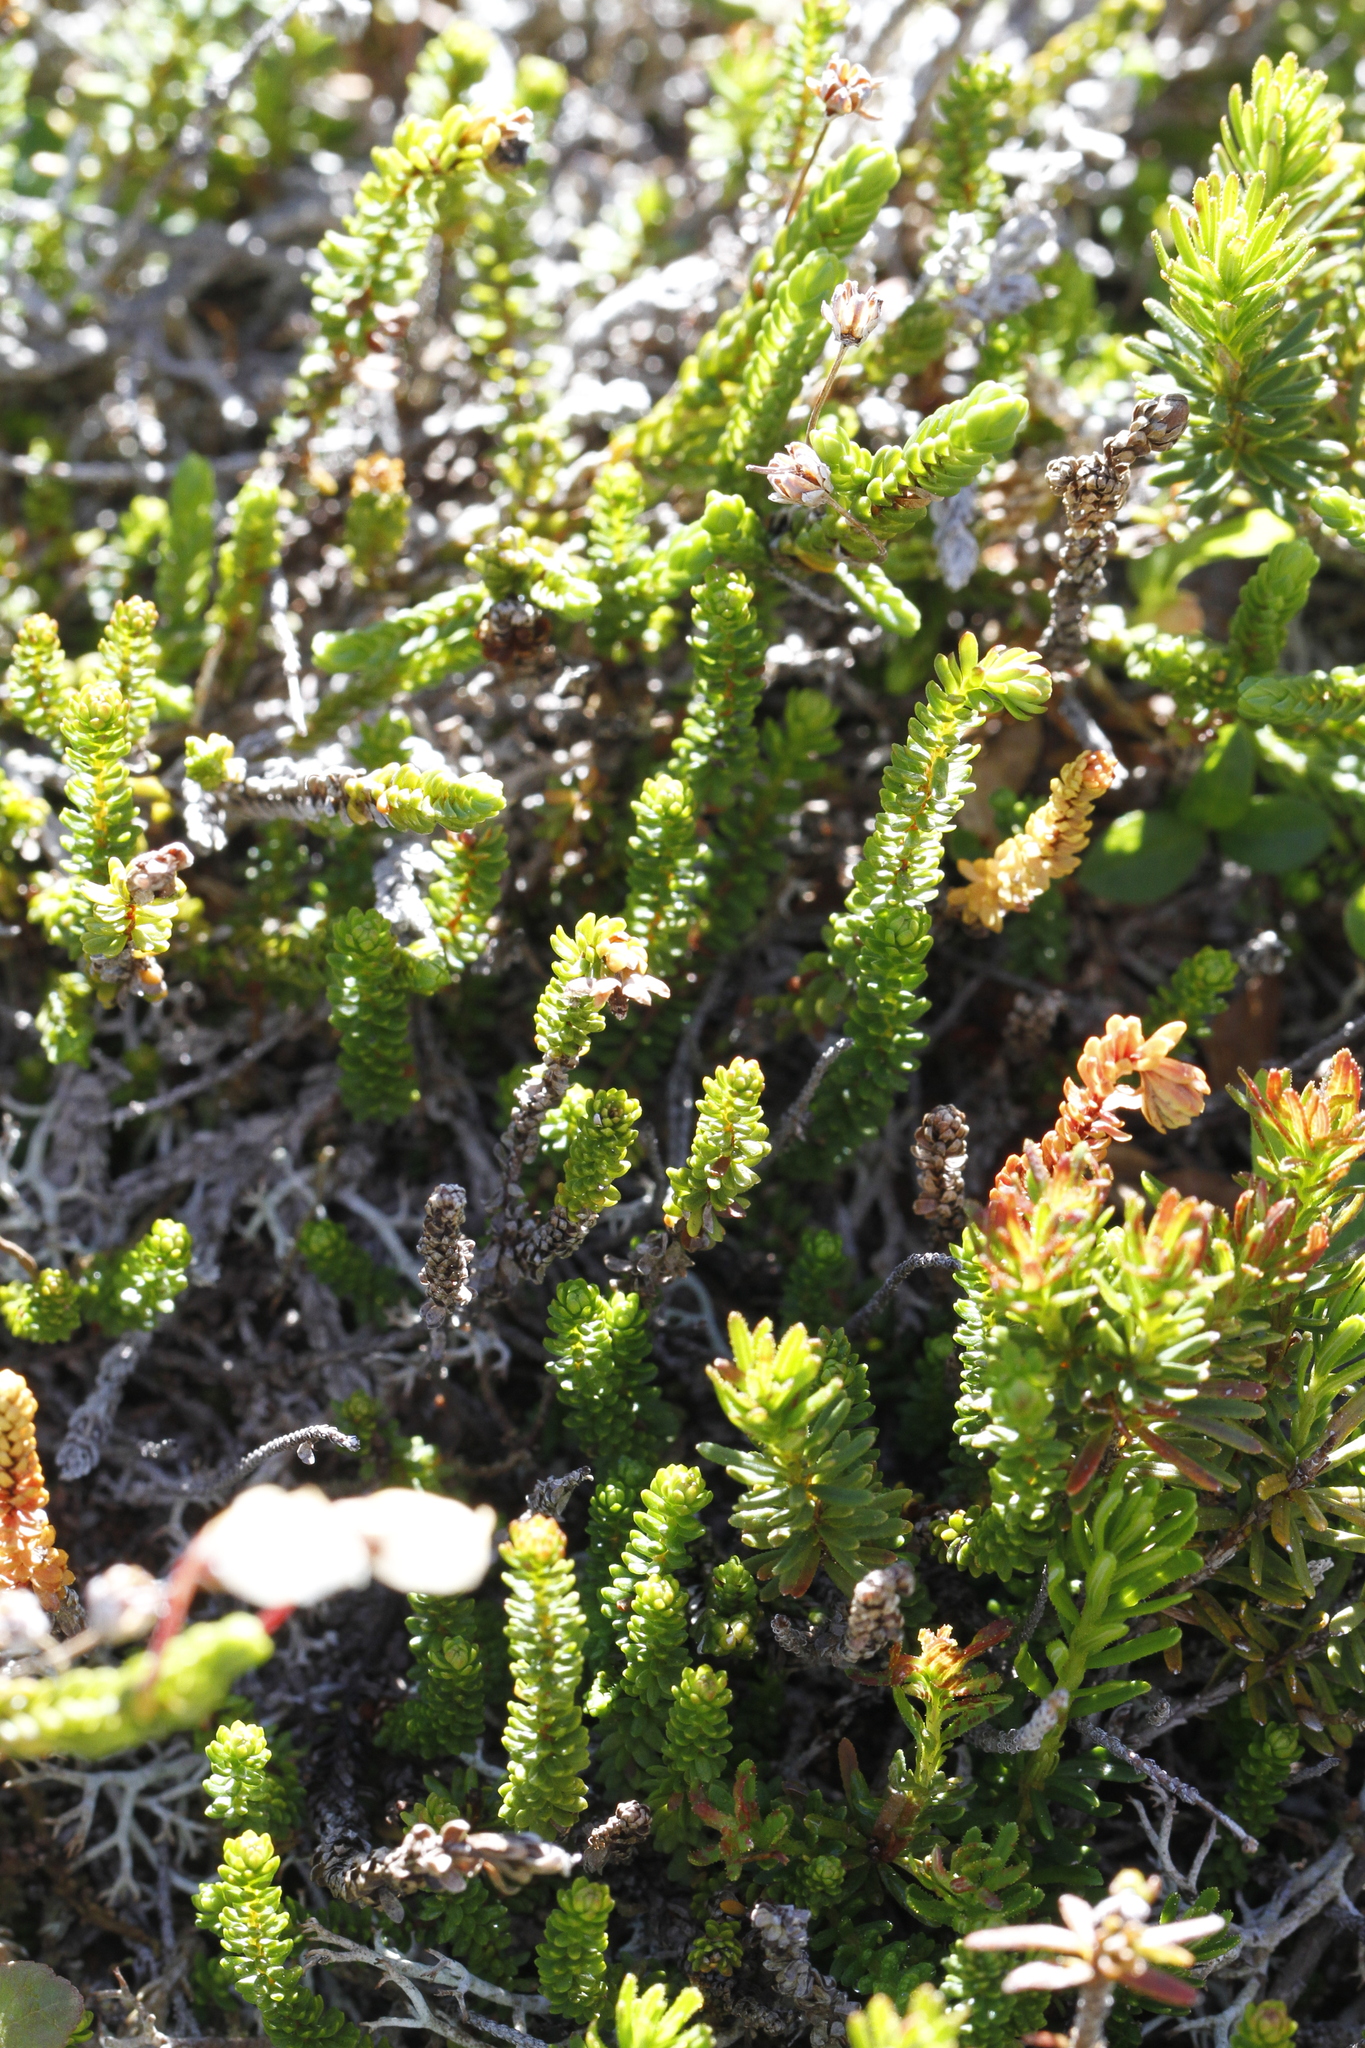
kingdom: Plantae
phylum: Tracheophyta
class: Magnoliopsida
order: Ericales
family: Ericaceae
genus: Harrimanella
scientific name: Harrimanella stelleriana
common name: Alaska bell heather
